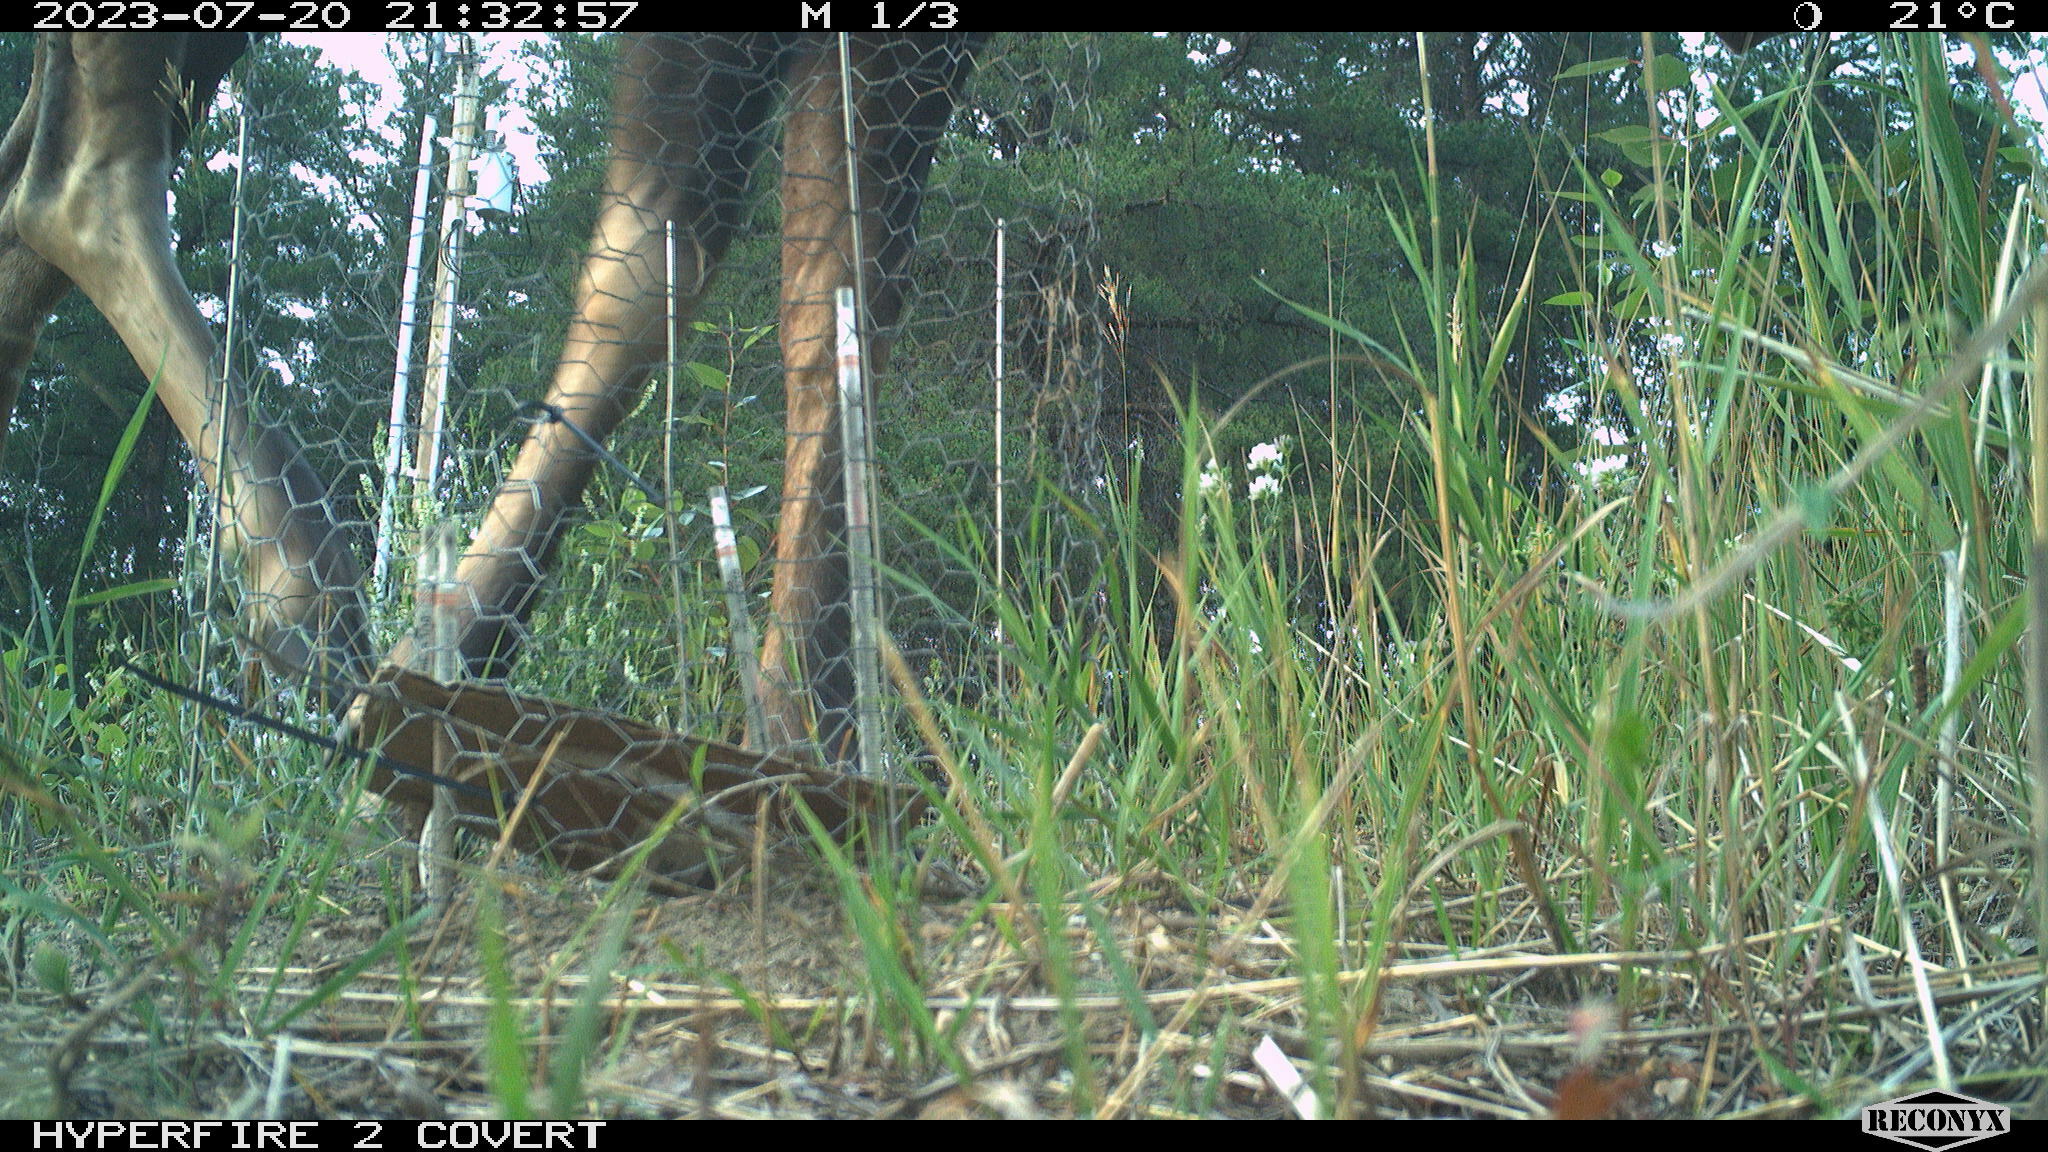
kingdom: Animalia
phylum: Chordata
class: Mammalia
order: Artiodactyla
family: Cervidae
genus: Alces
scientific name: Alces alces
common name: Moose
